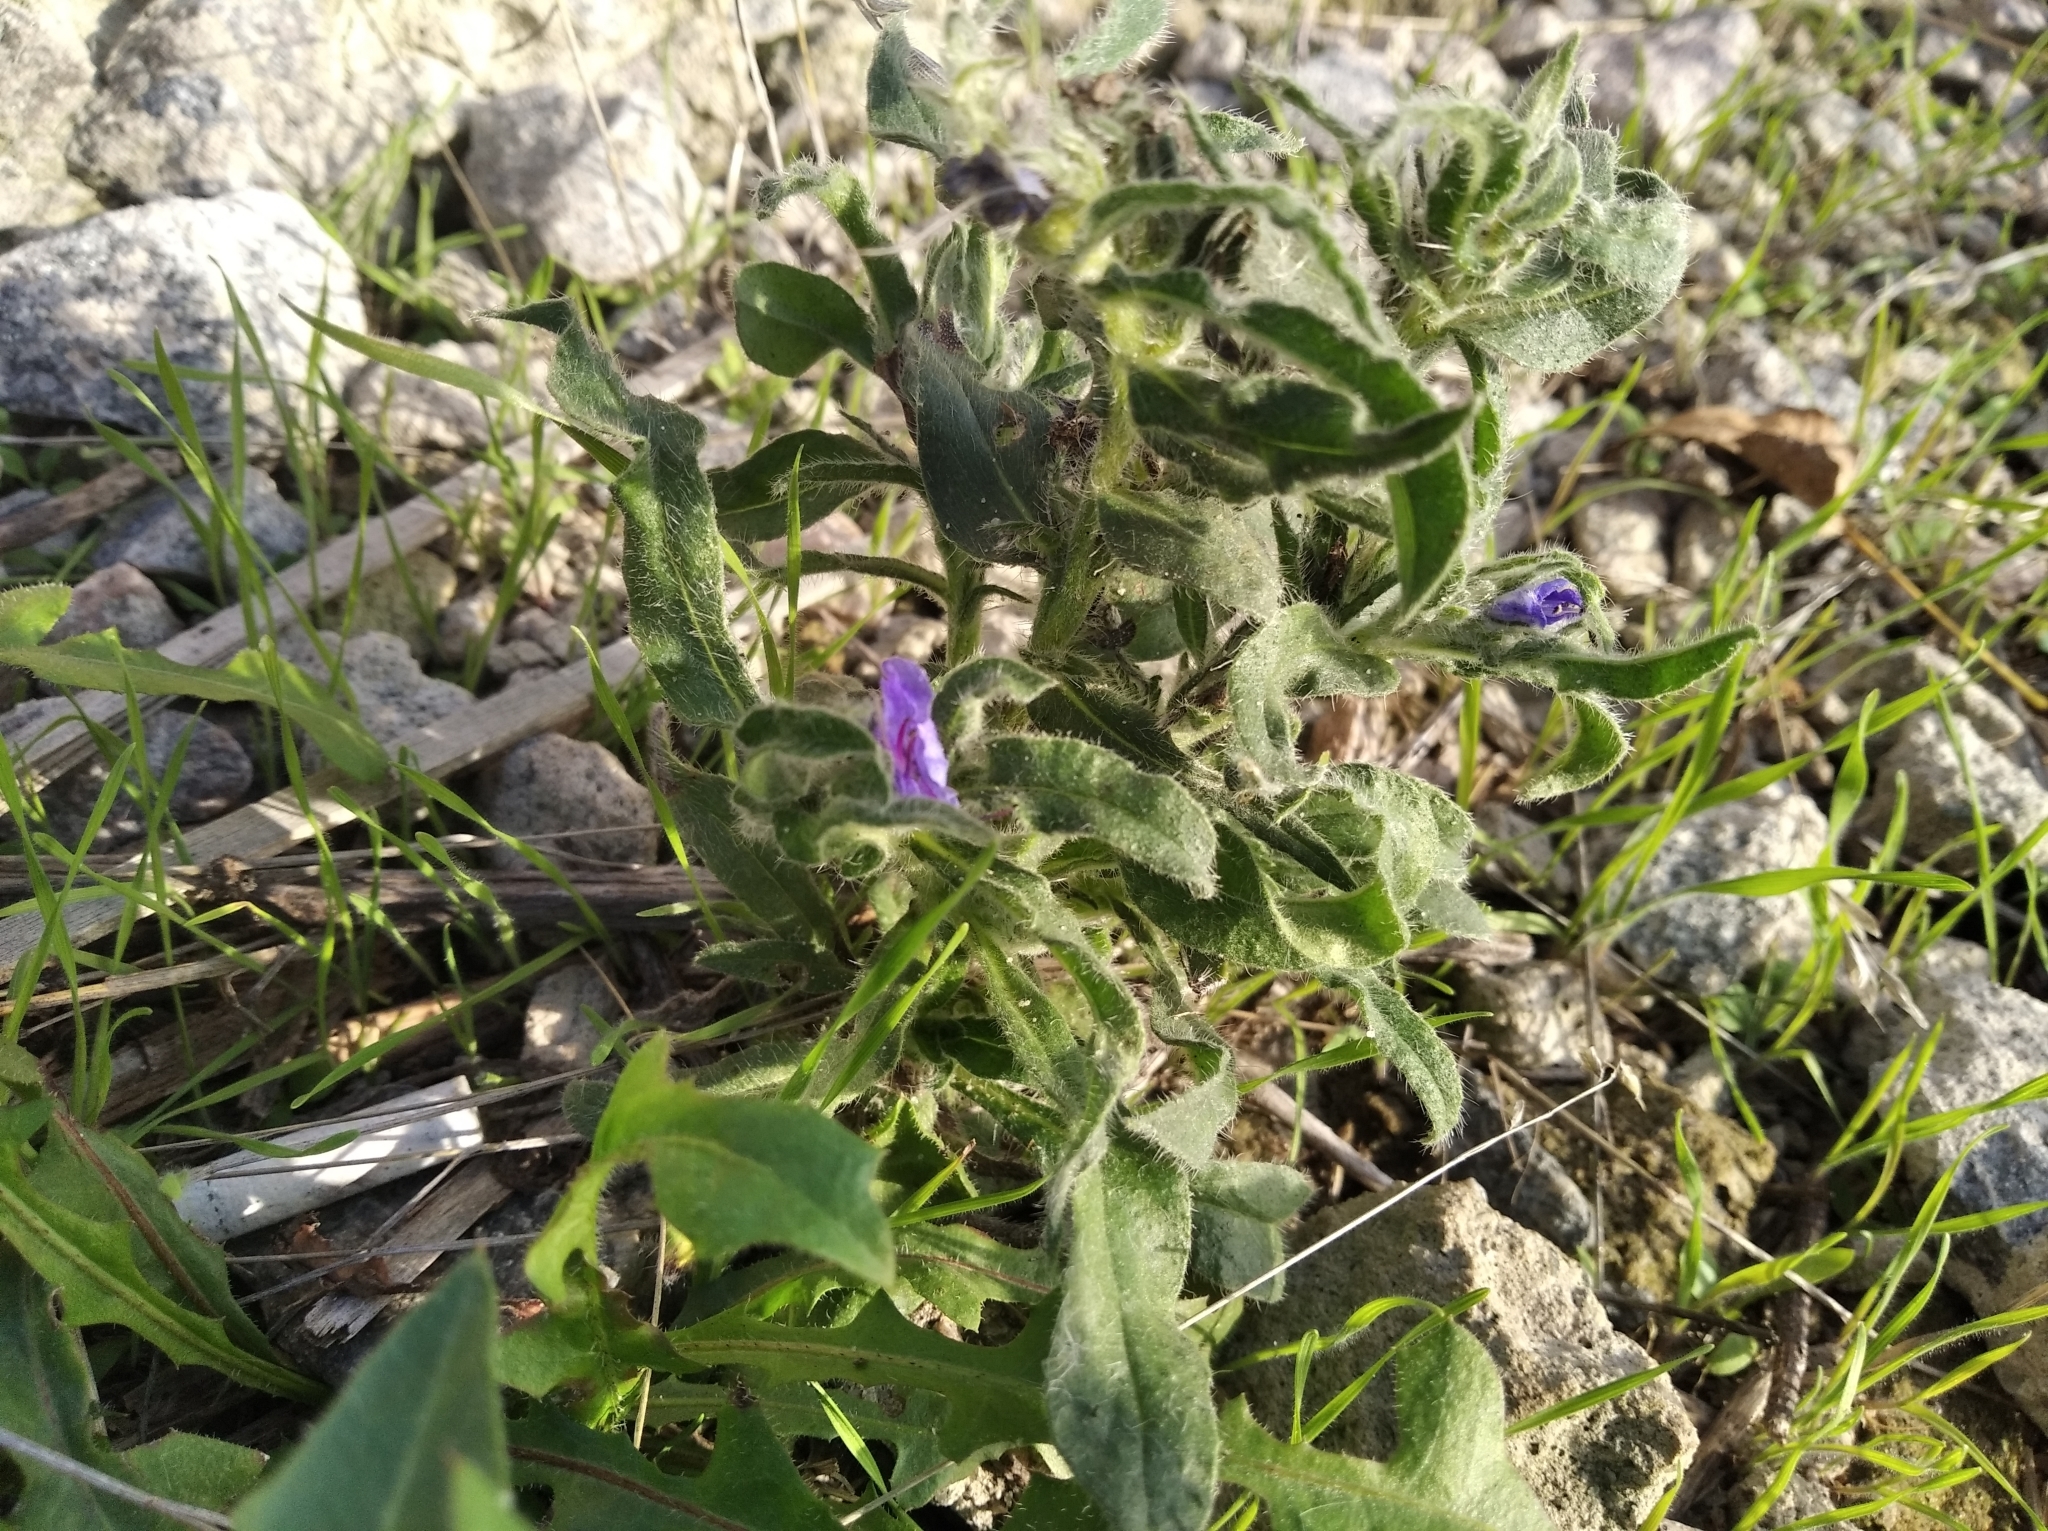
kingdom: Plantae
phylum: Tracheophyta
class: Magnoliopsida
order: Boraginales
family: Boraginaceae
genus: Echium
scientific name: Echium vulgare
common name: Common viper's bugloss
